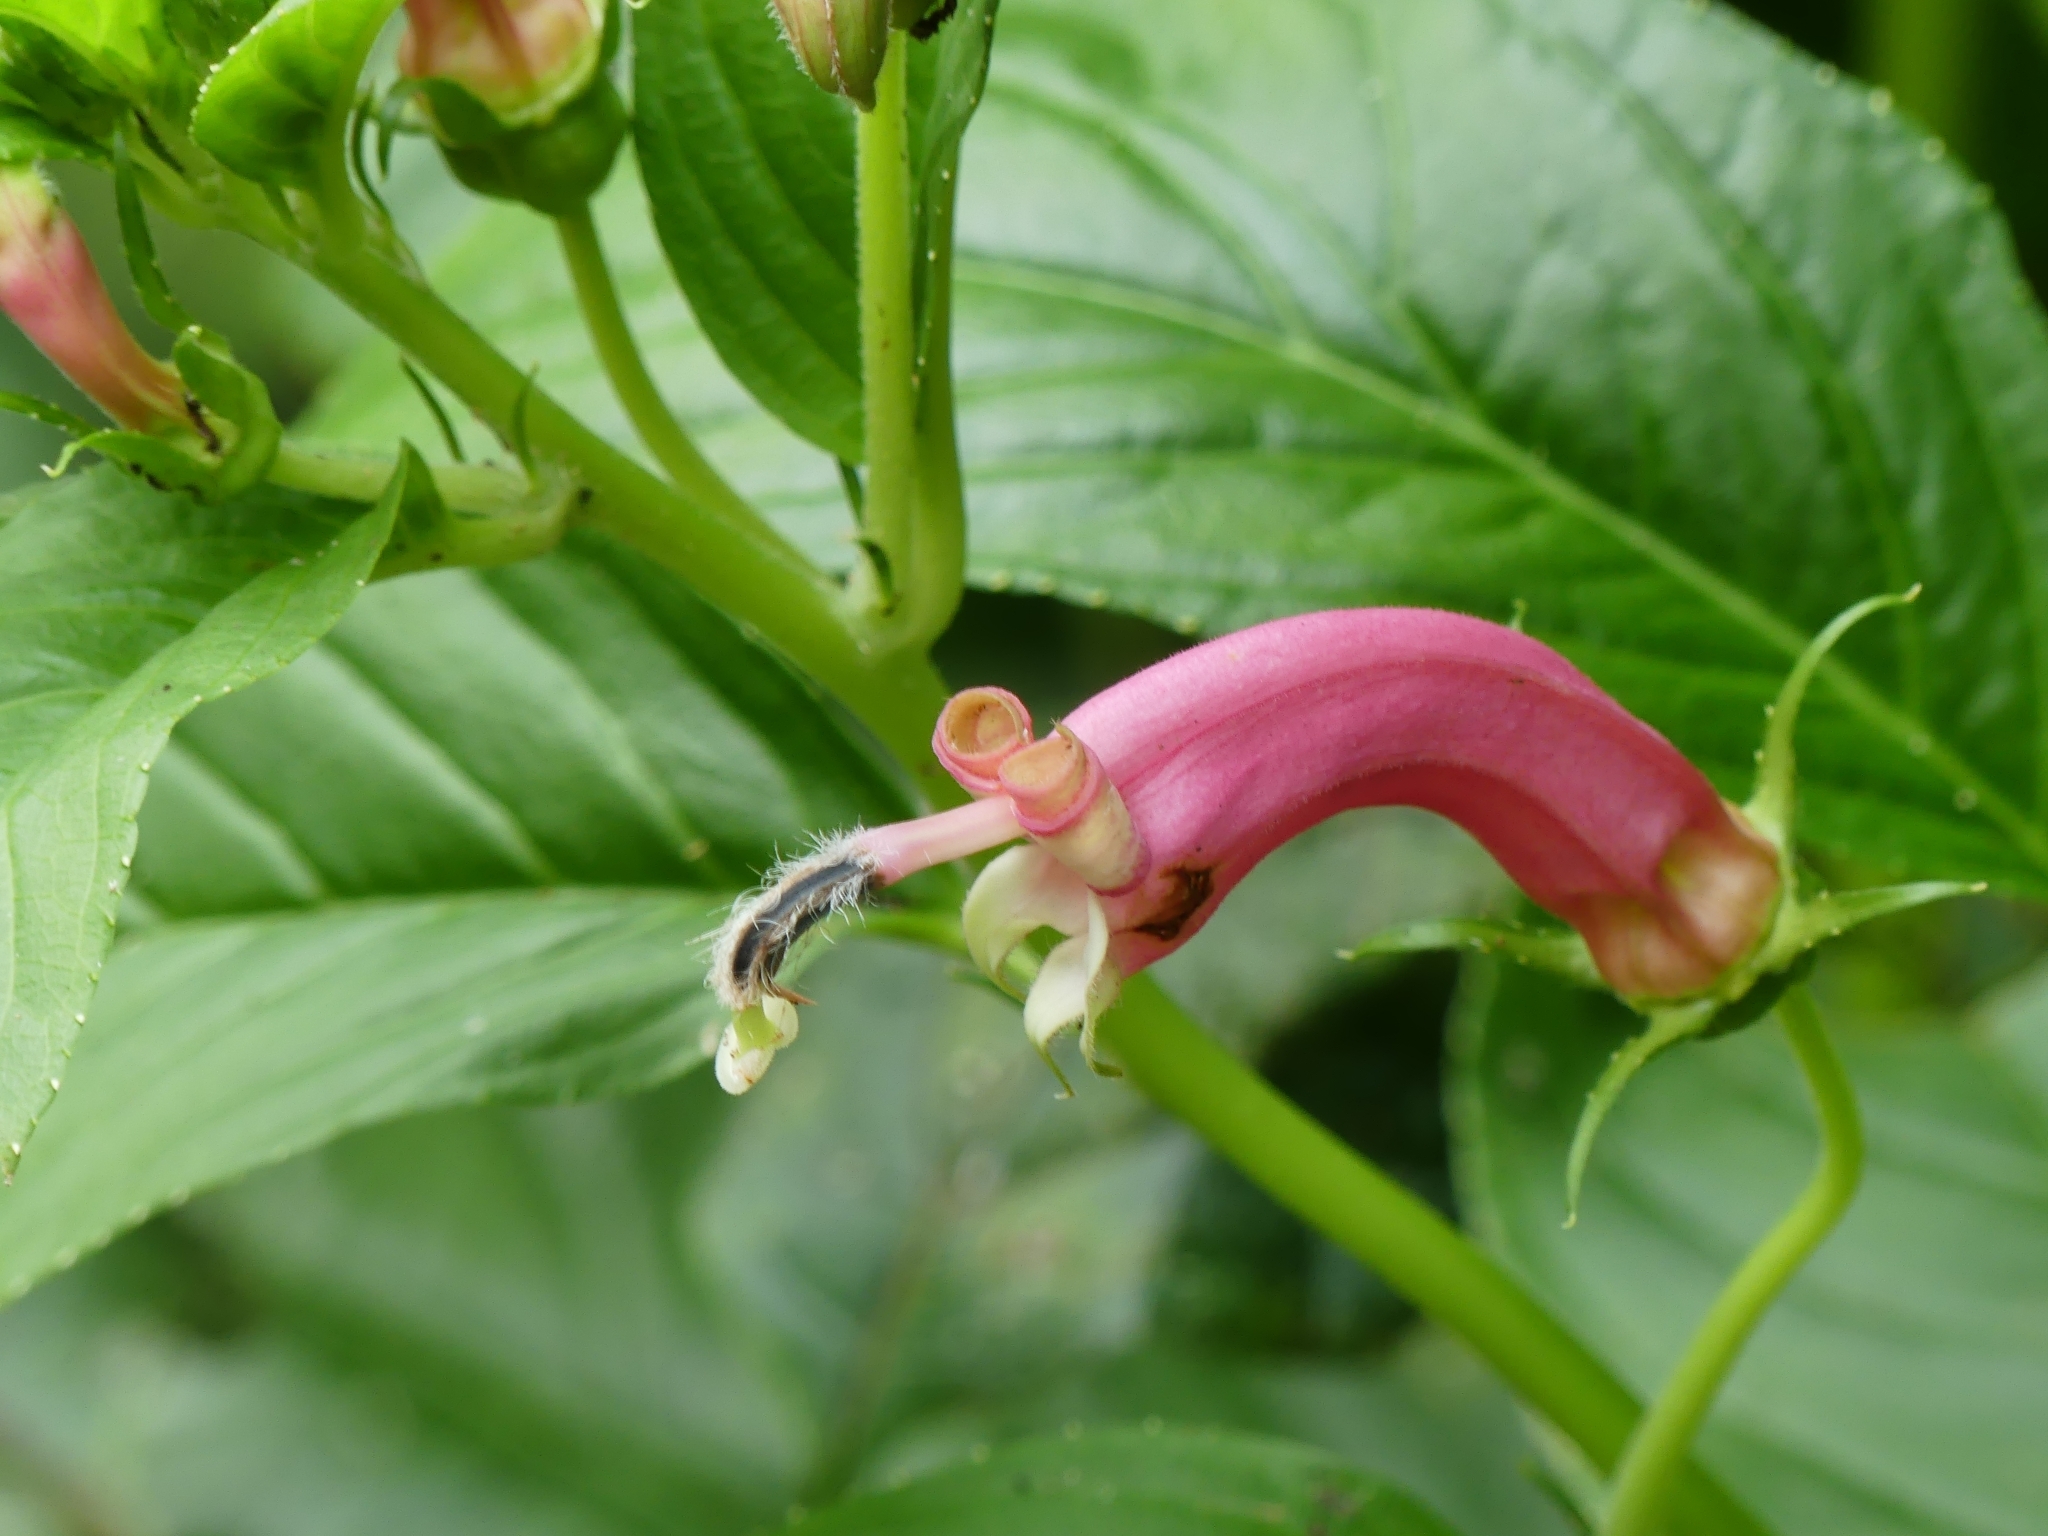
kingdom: Plantae
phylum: Tracheophyta
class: Magnoliopsida
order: Asterales
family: Campanulaceae
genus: Centropogon
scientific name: Centropogon cornutus
